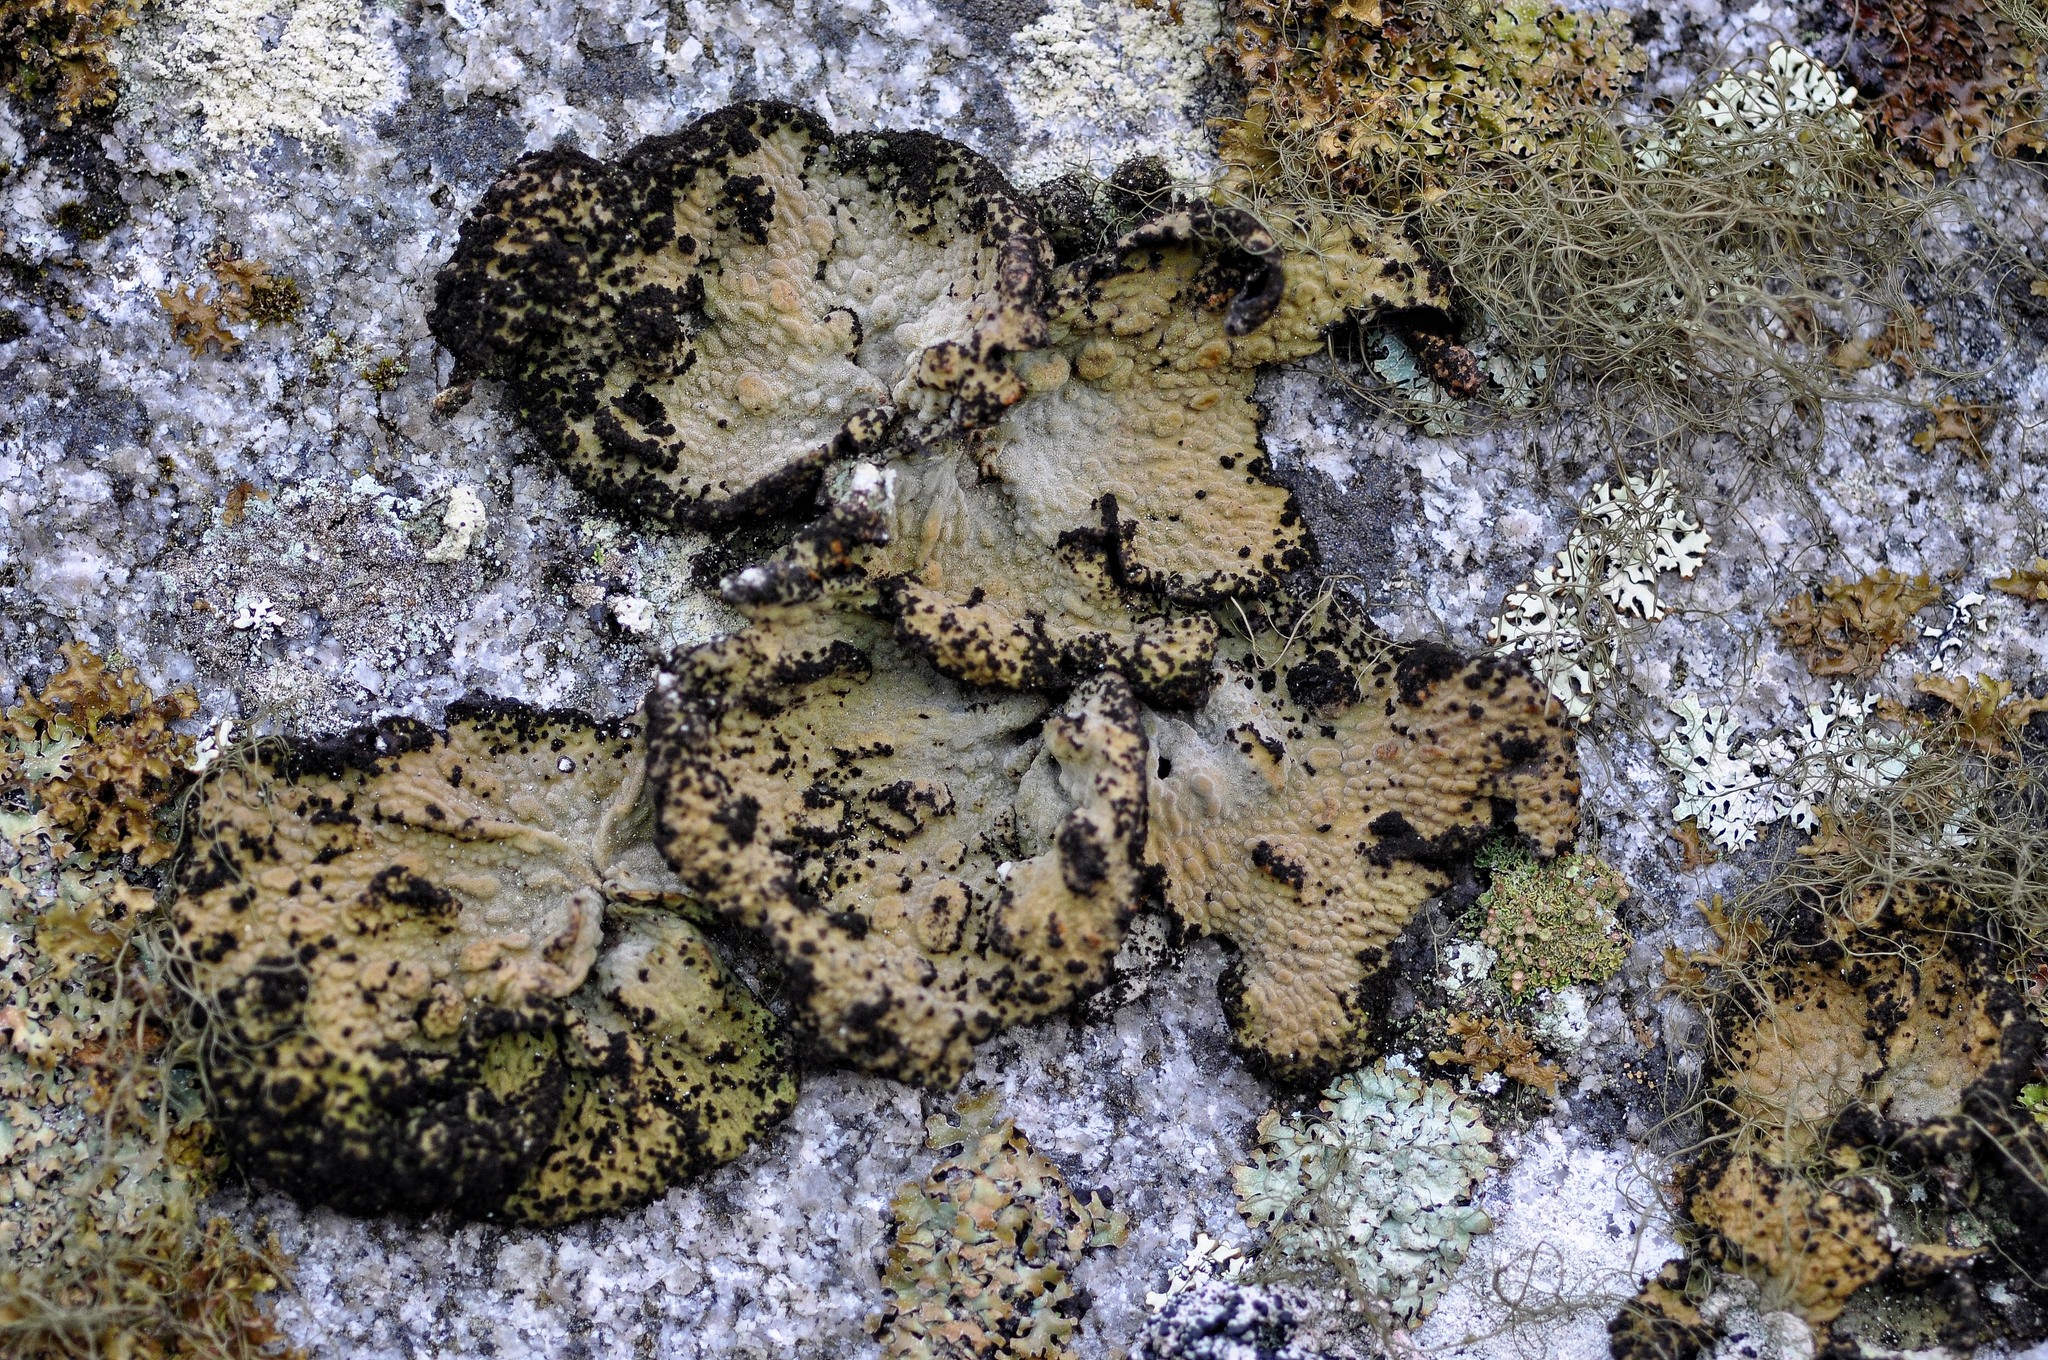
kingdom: Fungi
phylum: Ascomycota
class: Lecanoromycetes
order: Umbilicariales
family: Umbilicariaceae
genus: Lasallia
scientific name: Lasallia pustulata
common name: Blistered toadskin lichen
